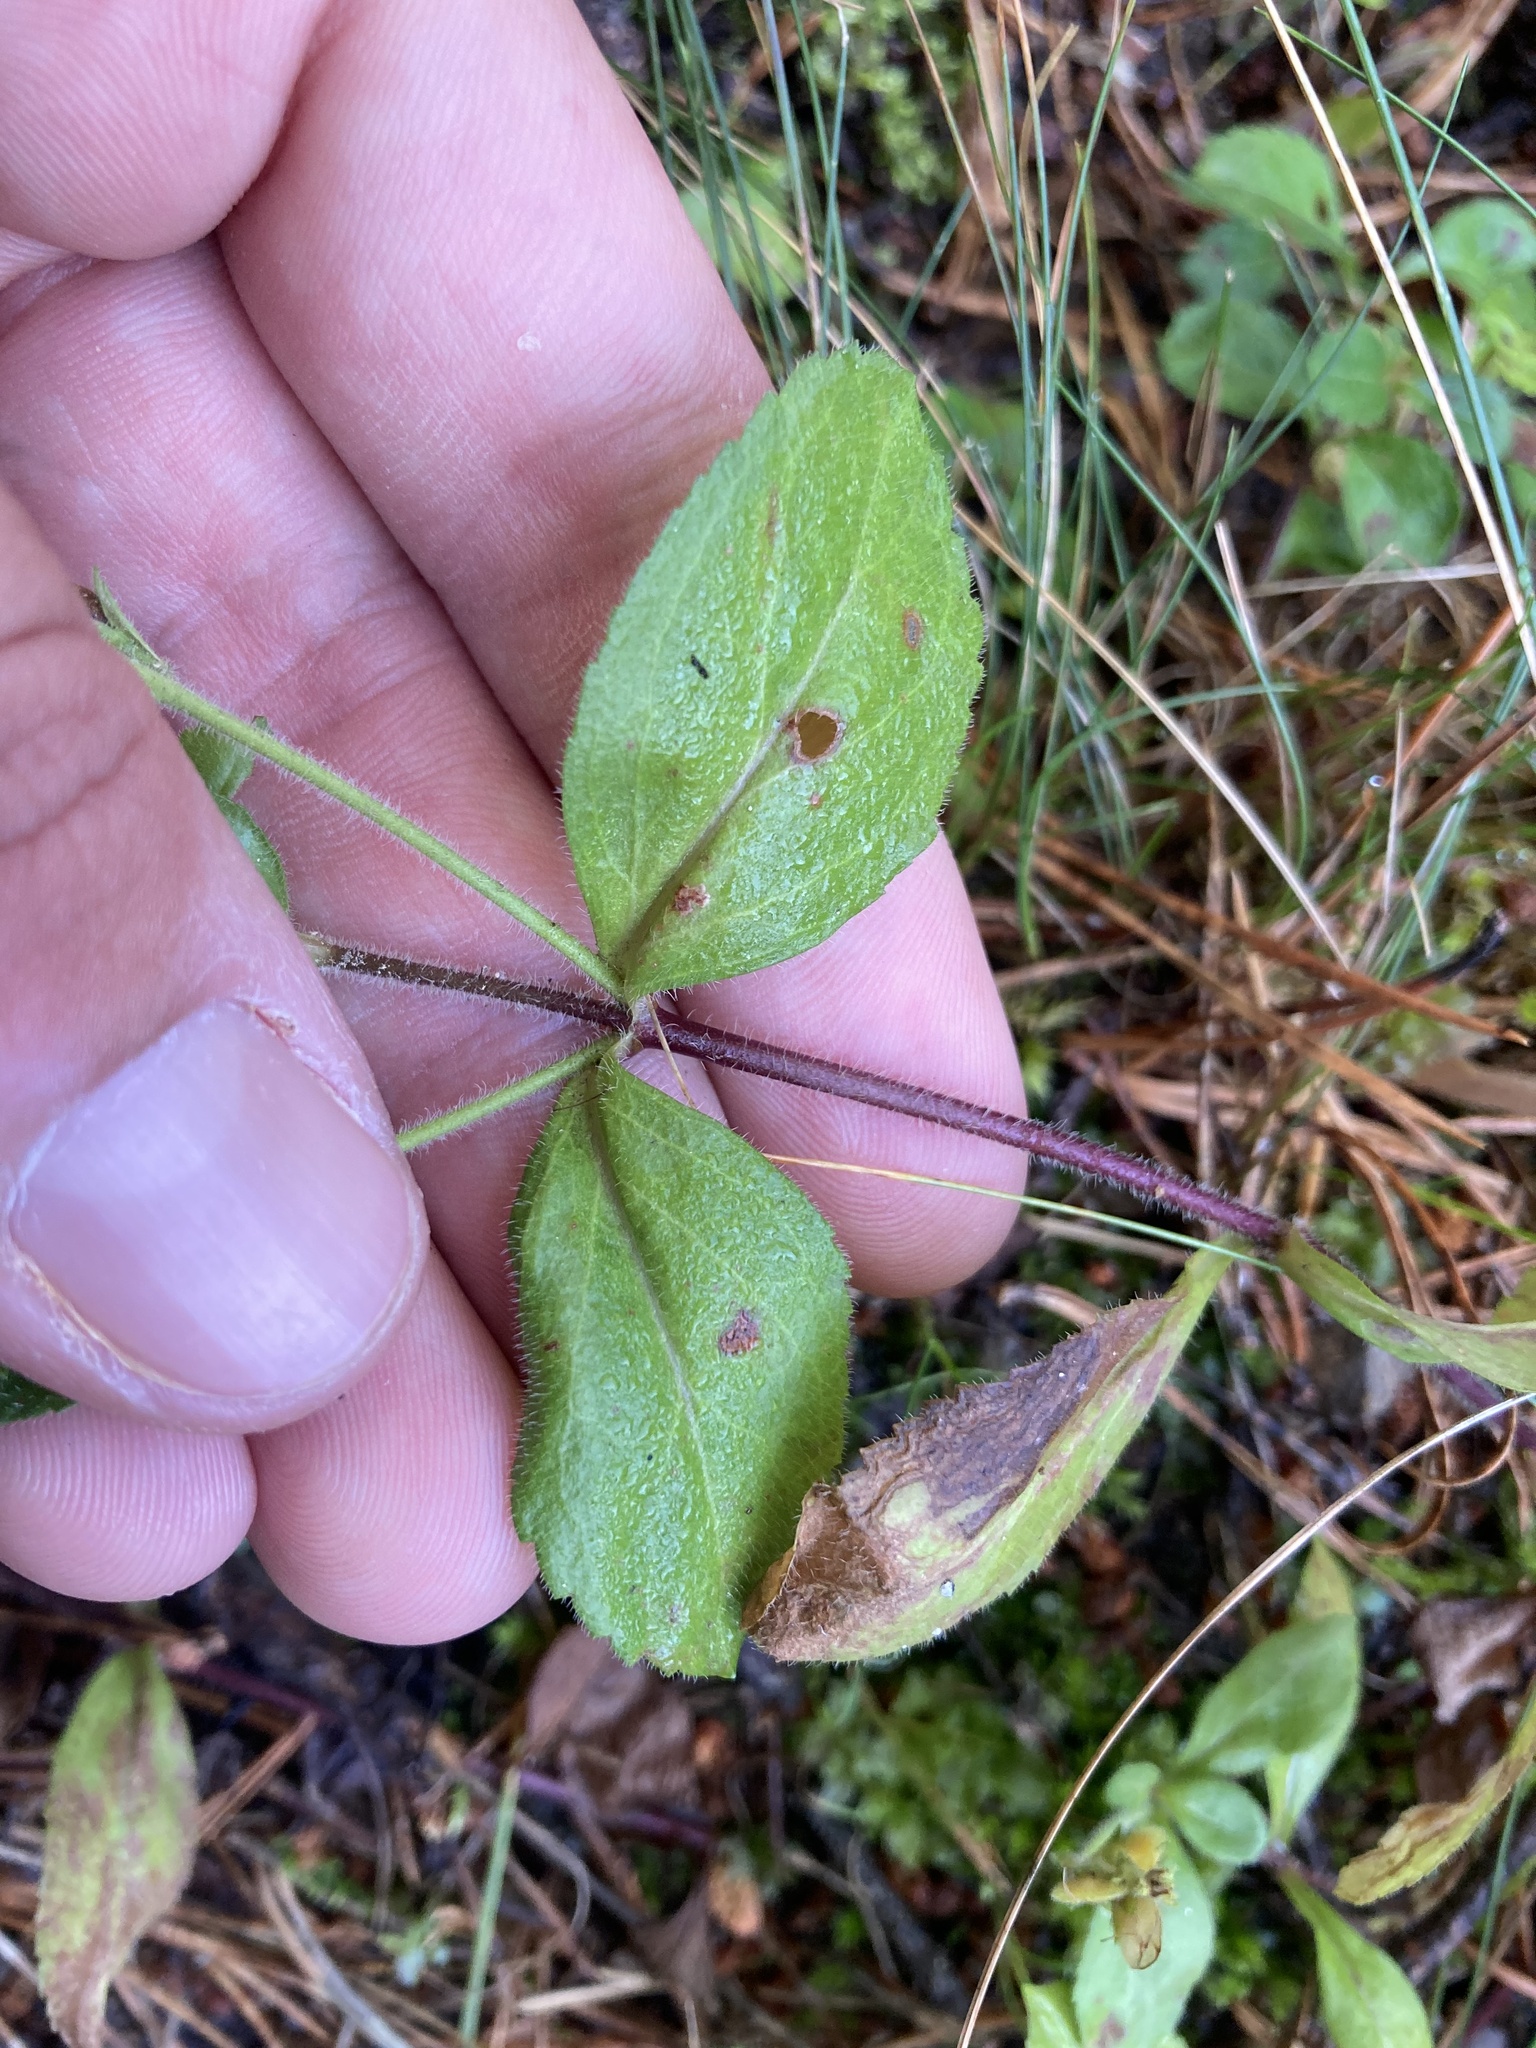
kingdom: Plantae
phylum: Tracheophyta
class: Magnoliopsida
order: Lamiales
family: Plantaginaceae
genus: Veronica
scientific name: Veronica officinalis
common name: Common speedwell
